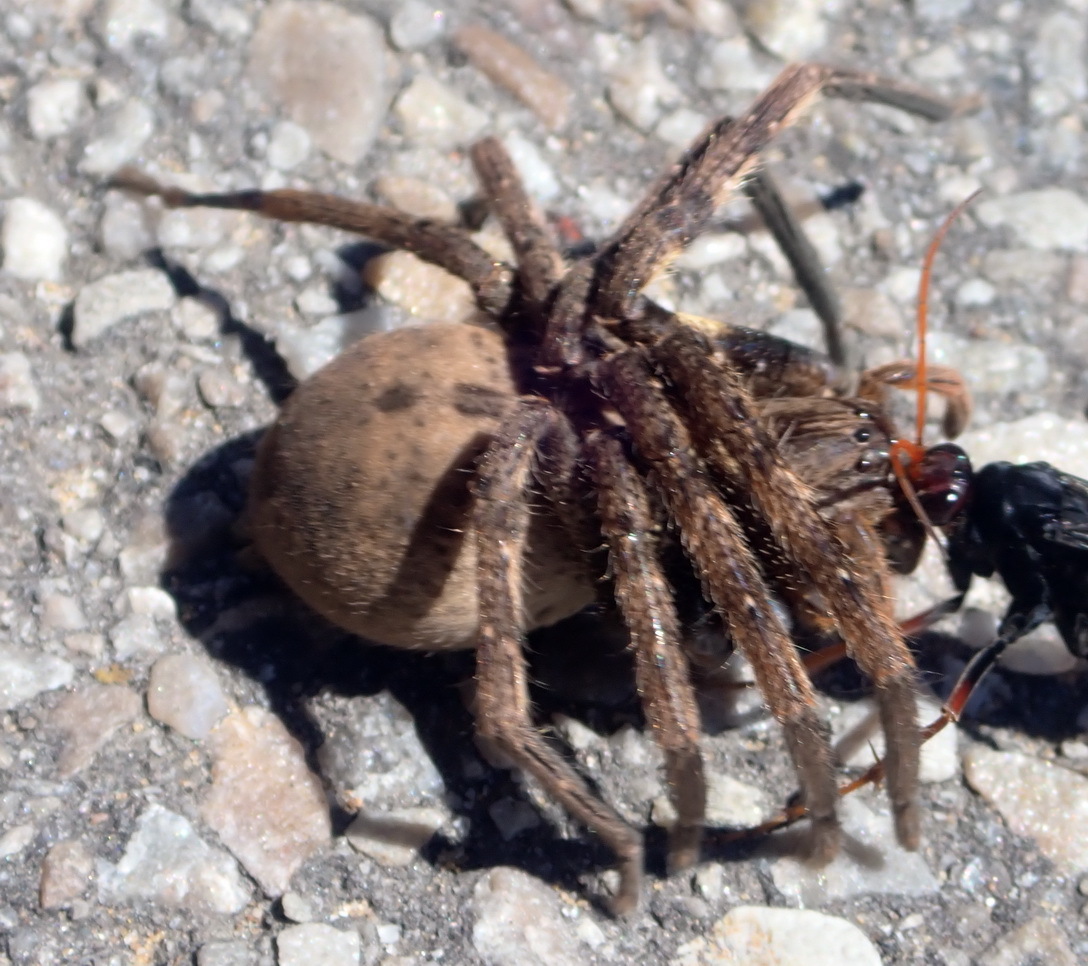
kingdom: Animalia
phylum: Arthropoda
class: Arachnida
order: Araneae
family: Sparassidae
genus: Palystes
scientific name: Palystes superciliosus
